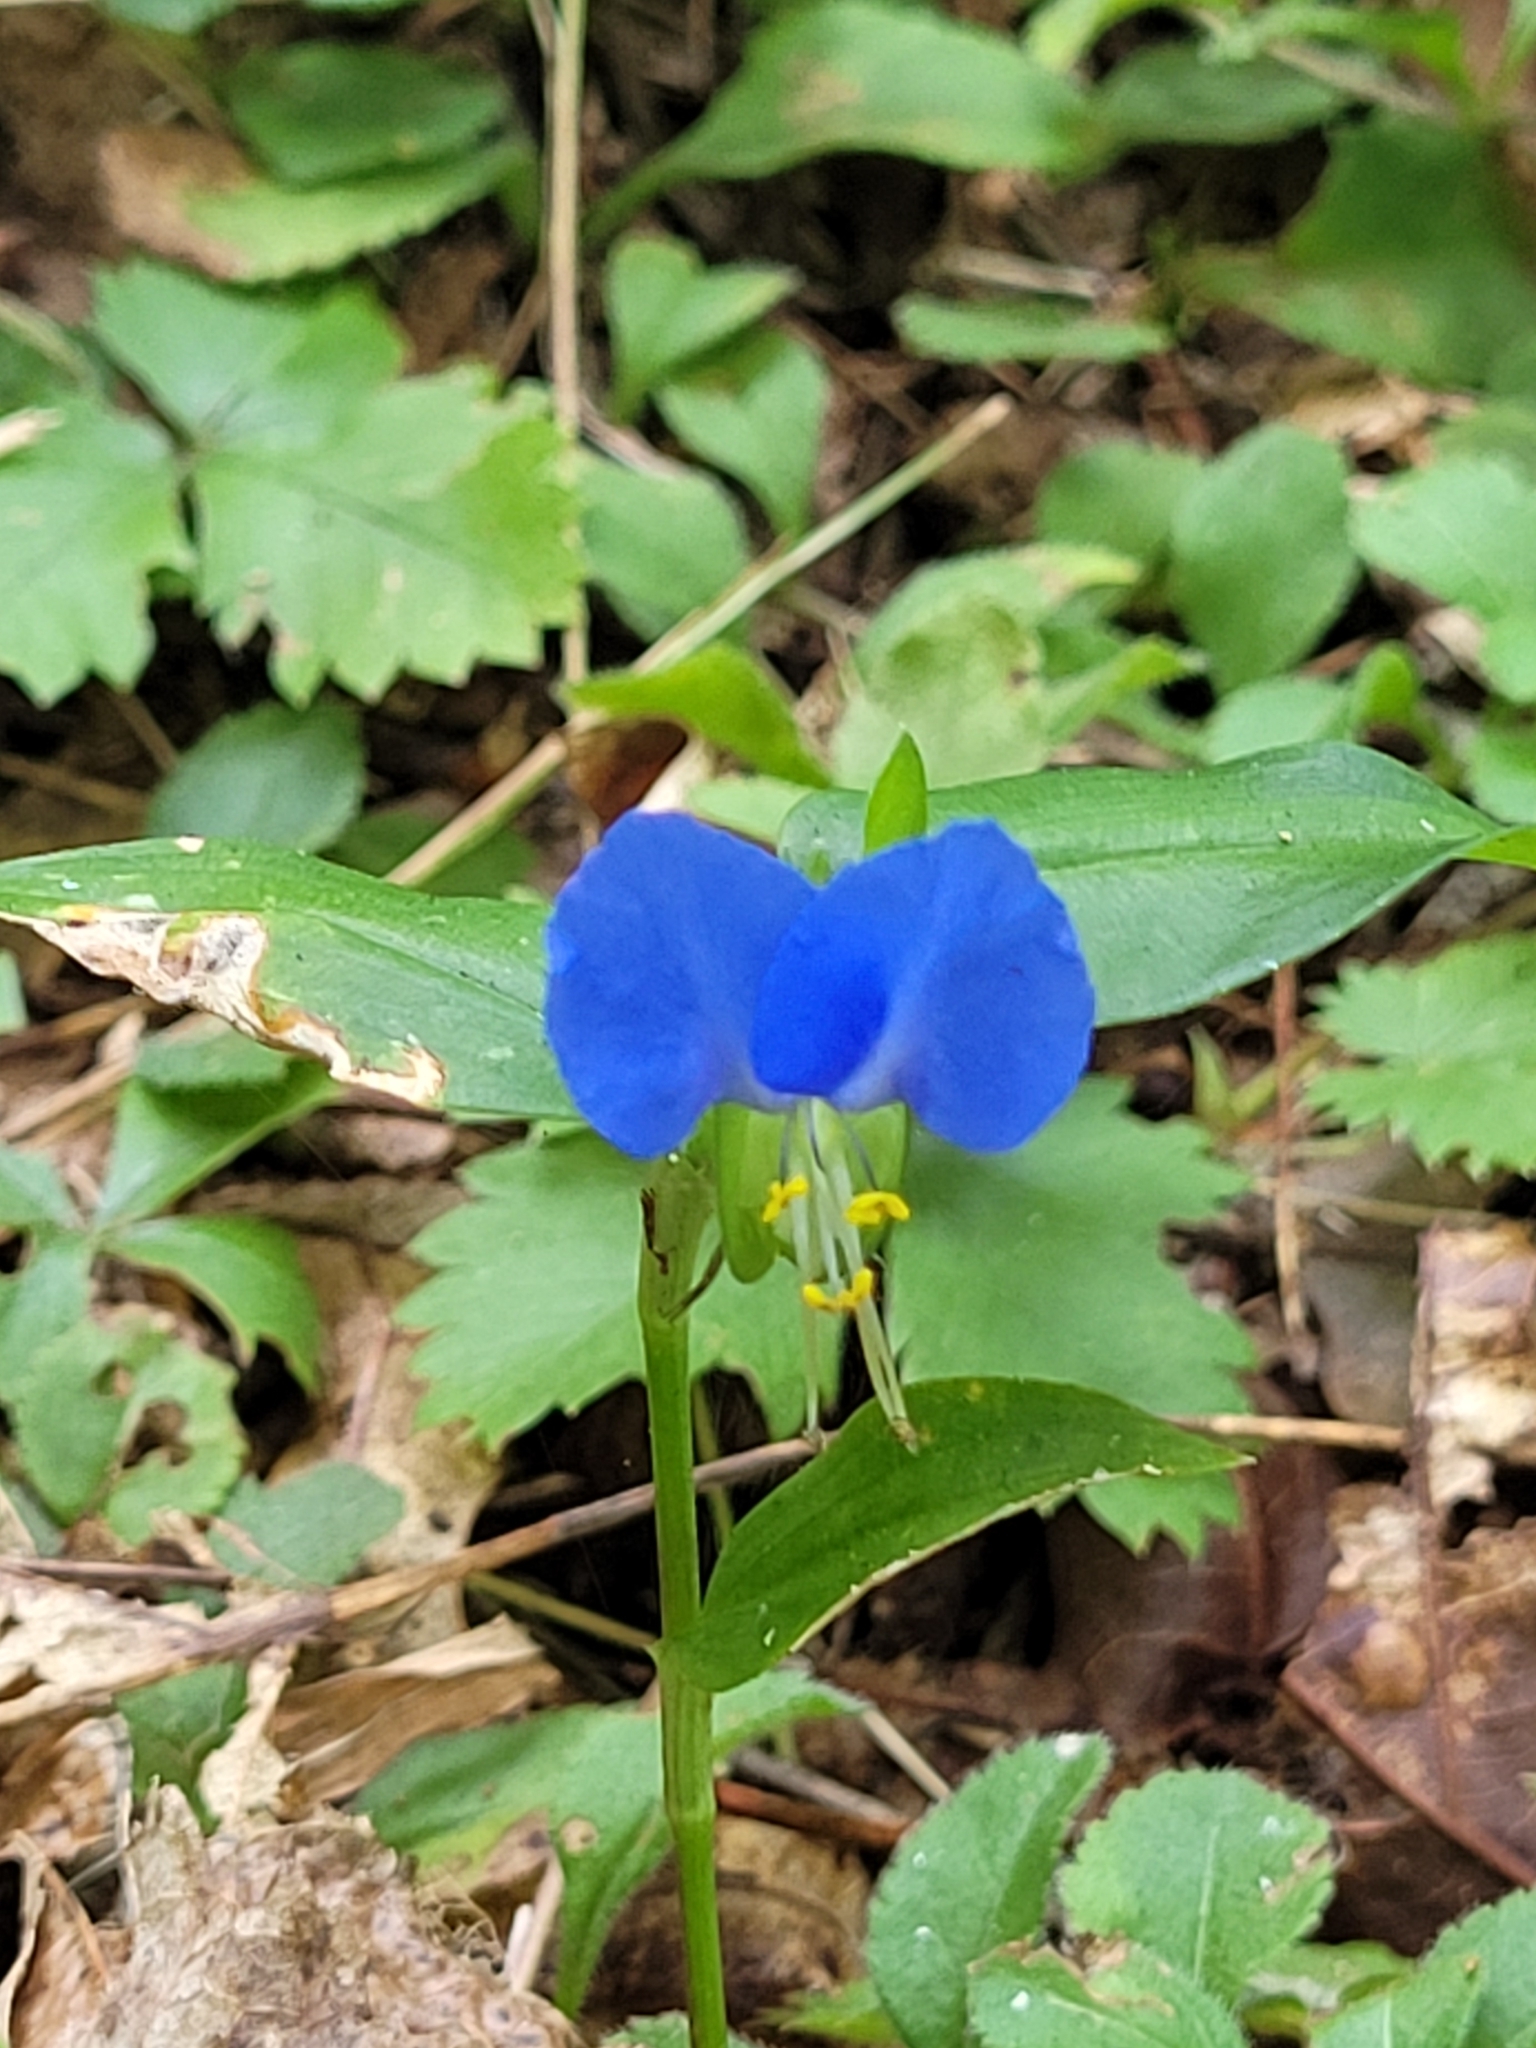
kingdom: Plantae
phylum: Tracheophyta
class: Liliopsida
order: Commelinales
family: Commelinaceae
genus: Commelina
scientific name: Commelina communis
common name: Asiatic dayflower
